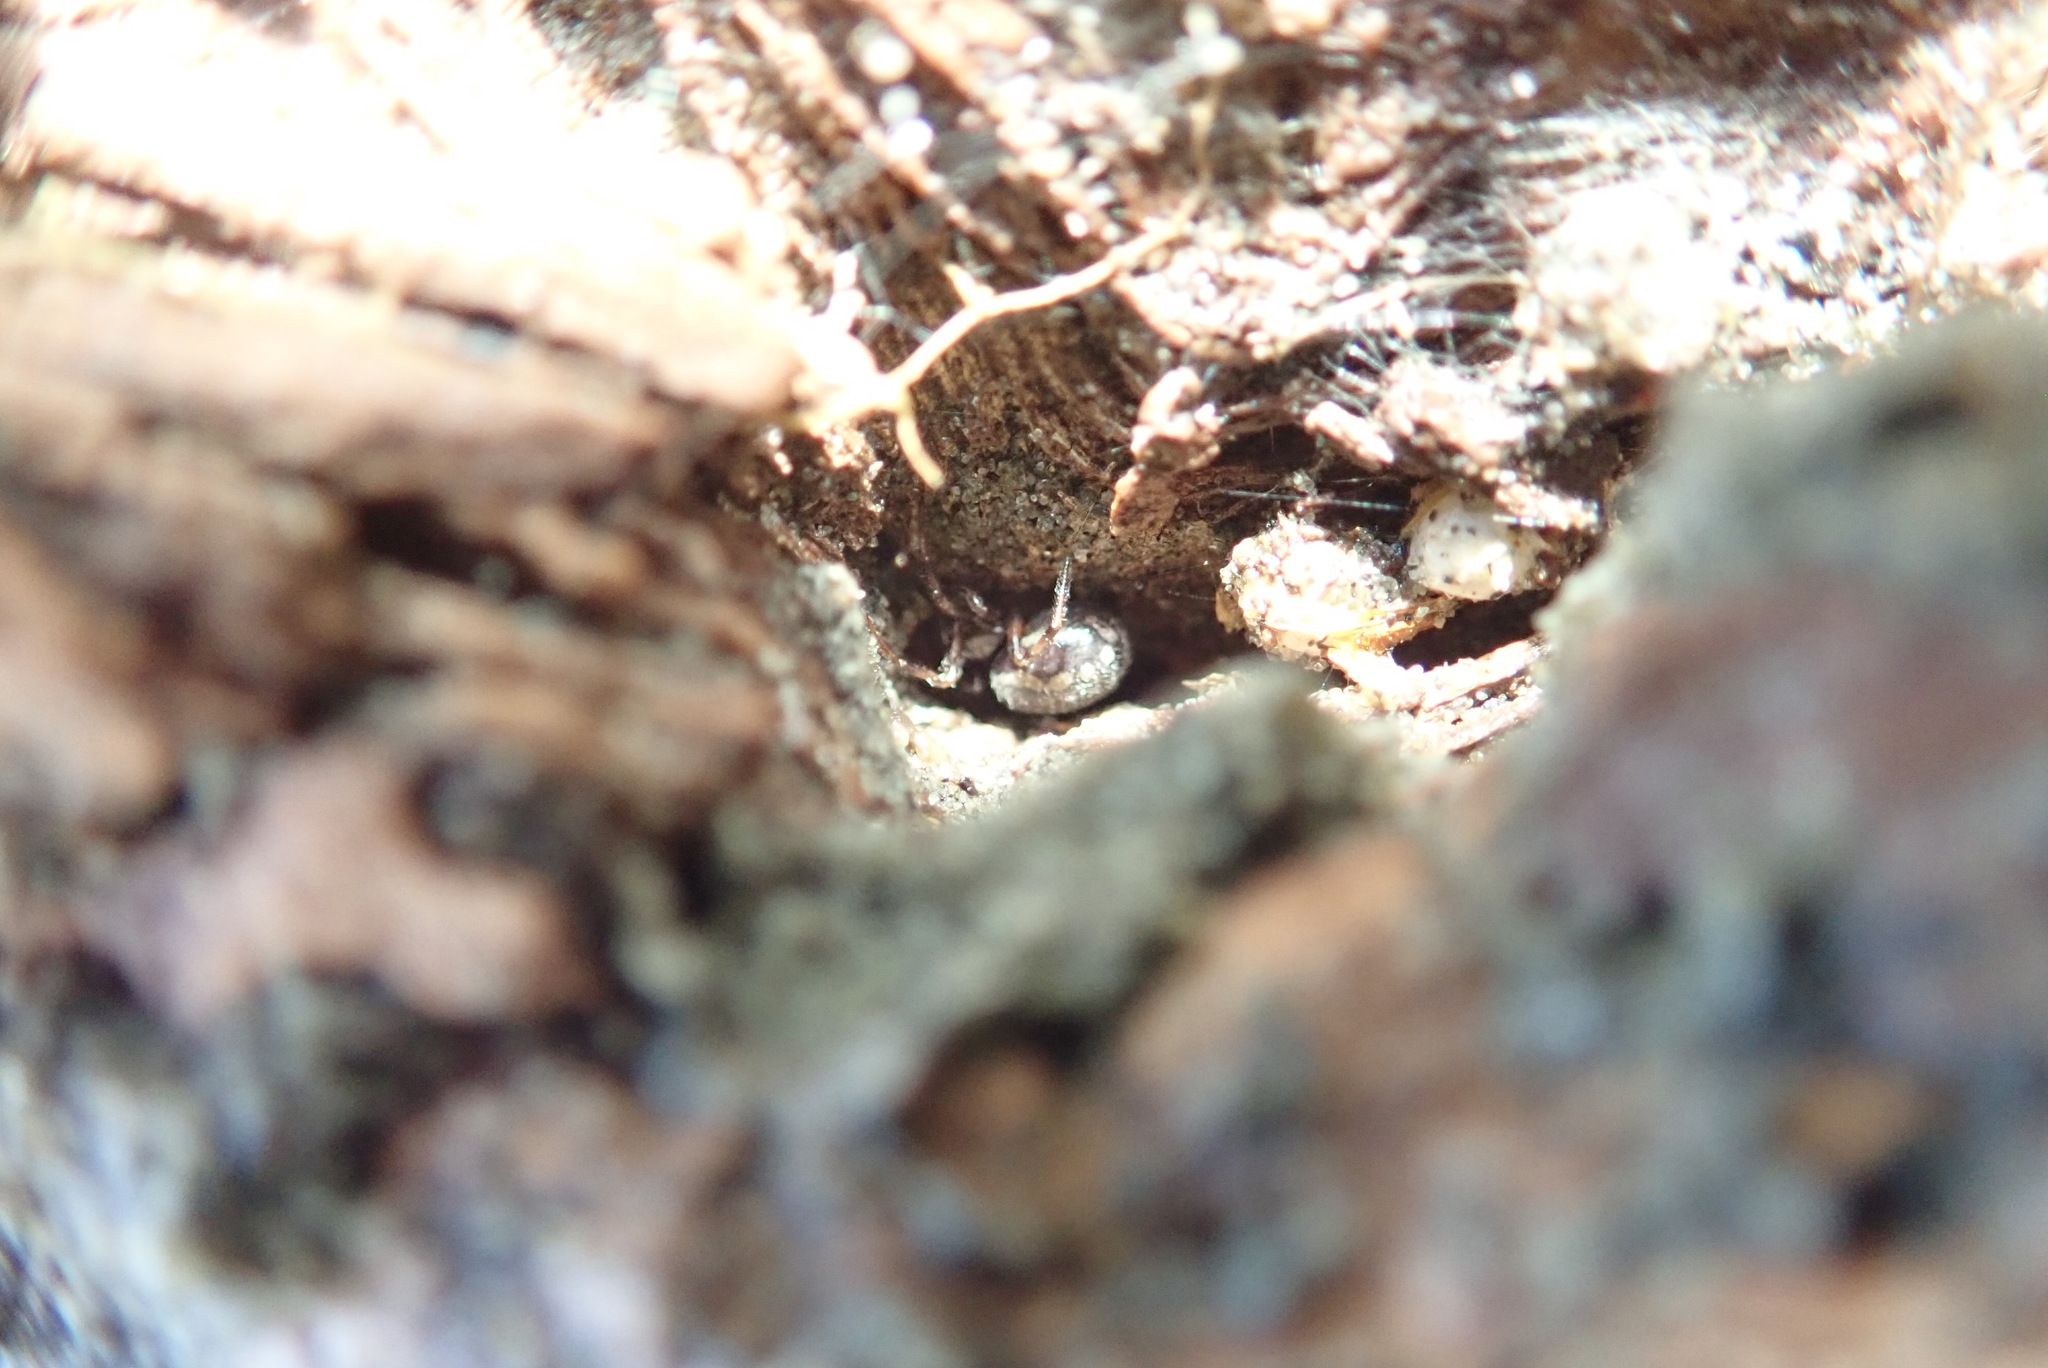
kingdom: Animalia
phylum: Arthropoda
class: Arachnida
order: Araneae
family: Theridiidae
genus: Steatoda
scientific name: Steatoda lepida
